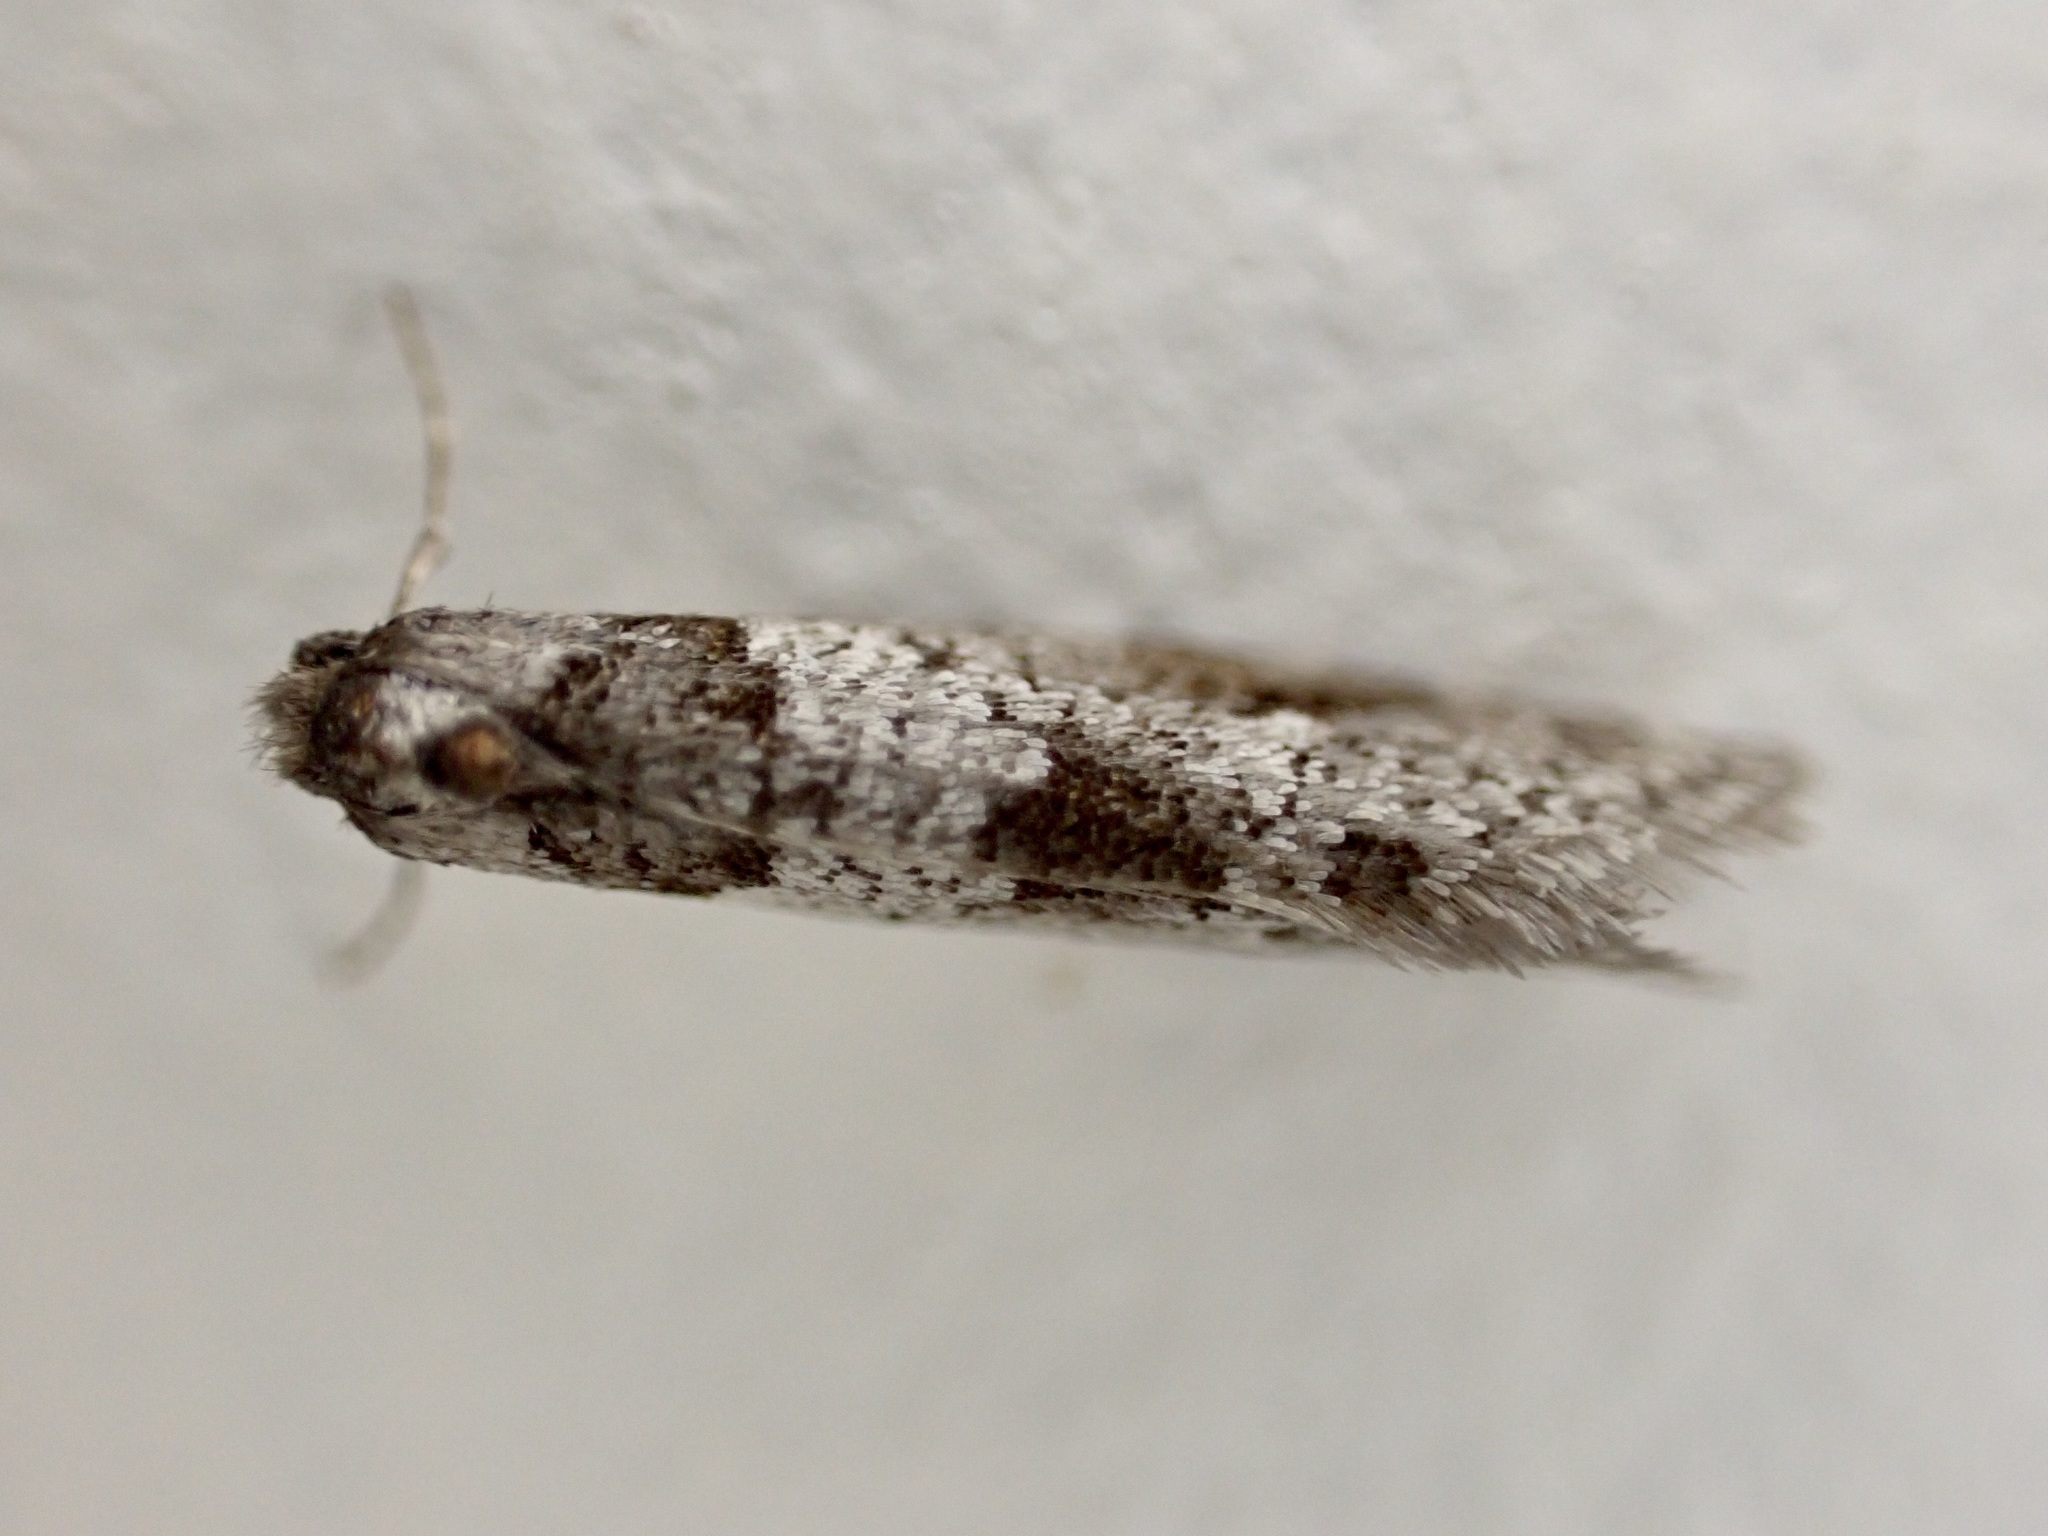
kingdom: Animalia
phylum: Arthropoda
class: Insecta
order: Lepidoptera
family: Psychidae
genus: Lepidoscia
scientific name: Lepidoscia heliochares
